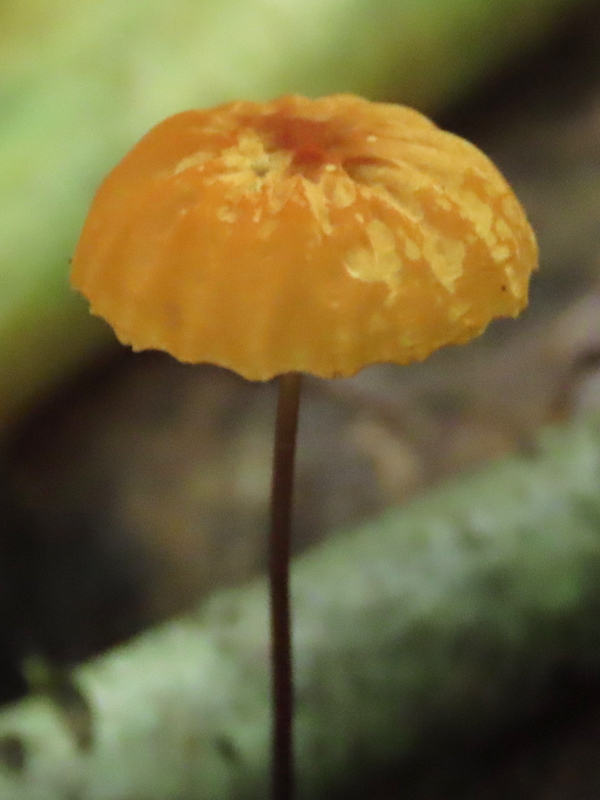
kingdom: Fungi
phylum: Basidiomycota
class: Agaricomycetes
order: Agaricales
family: Marasmiaceae
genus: Marasmius
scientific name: Marasmius siccus
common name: Orange pinwheel
